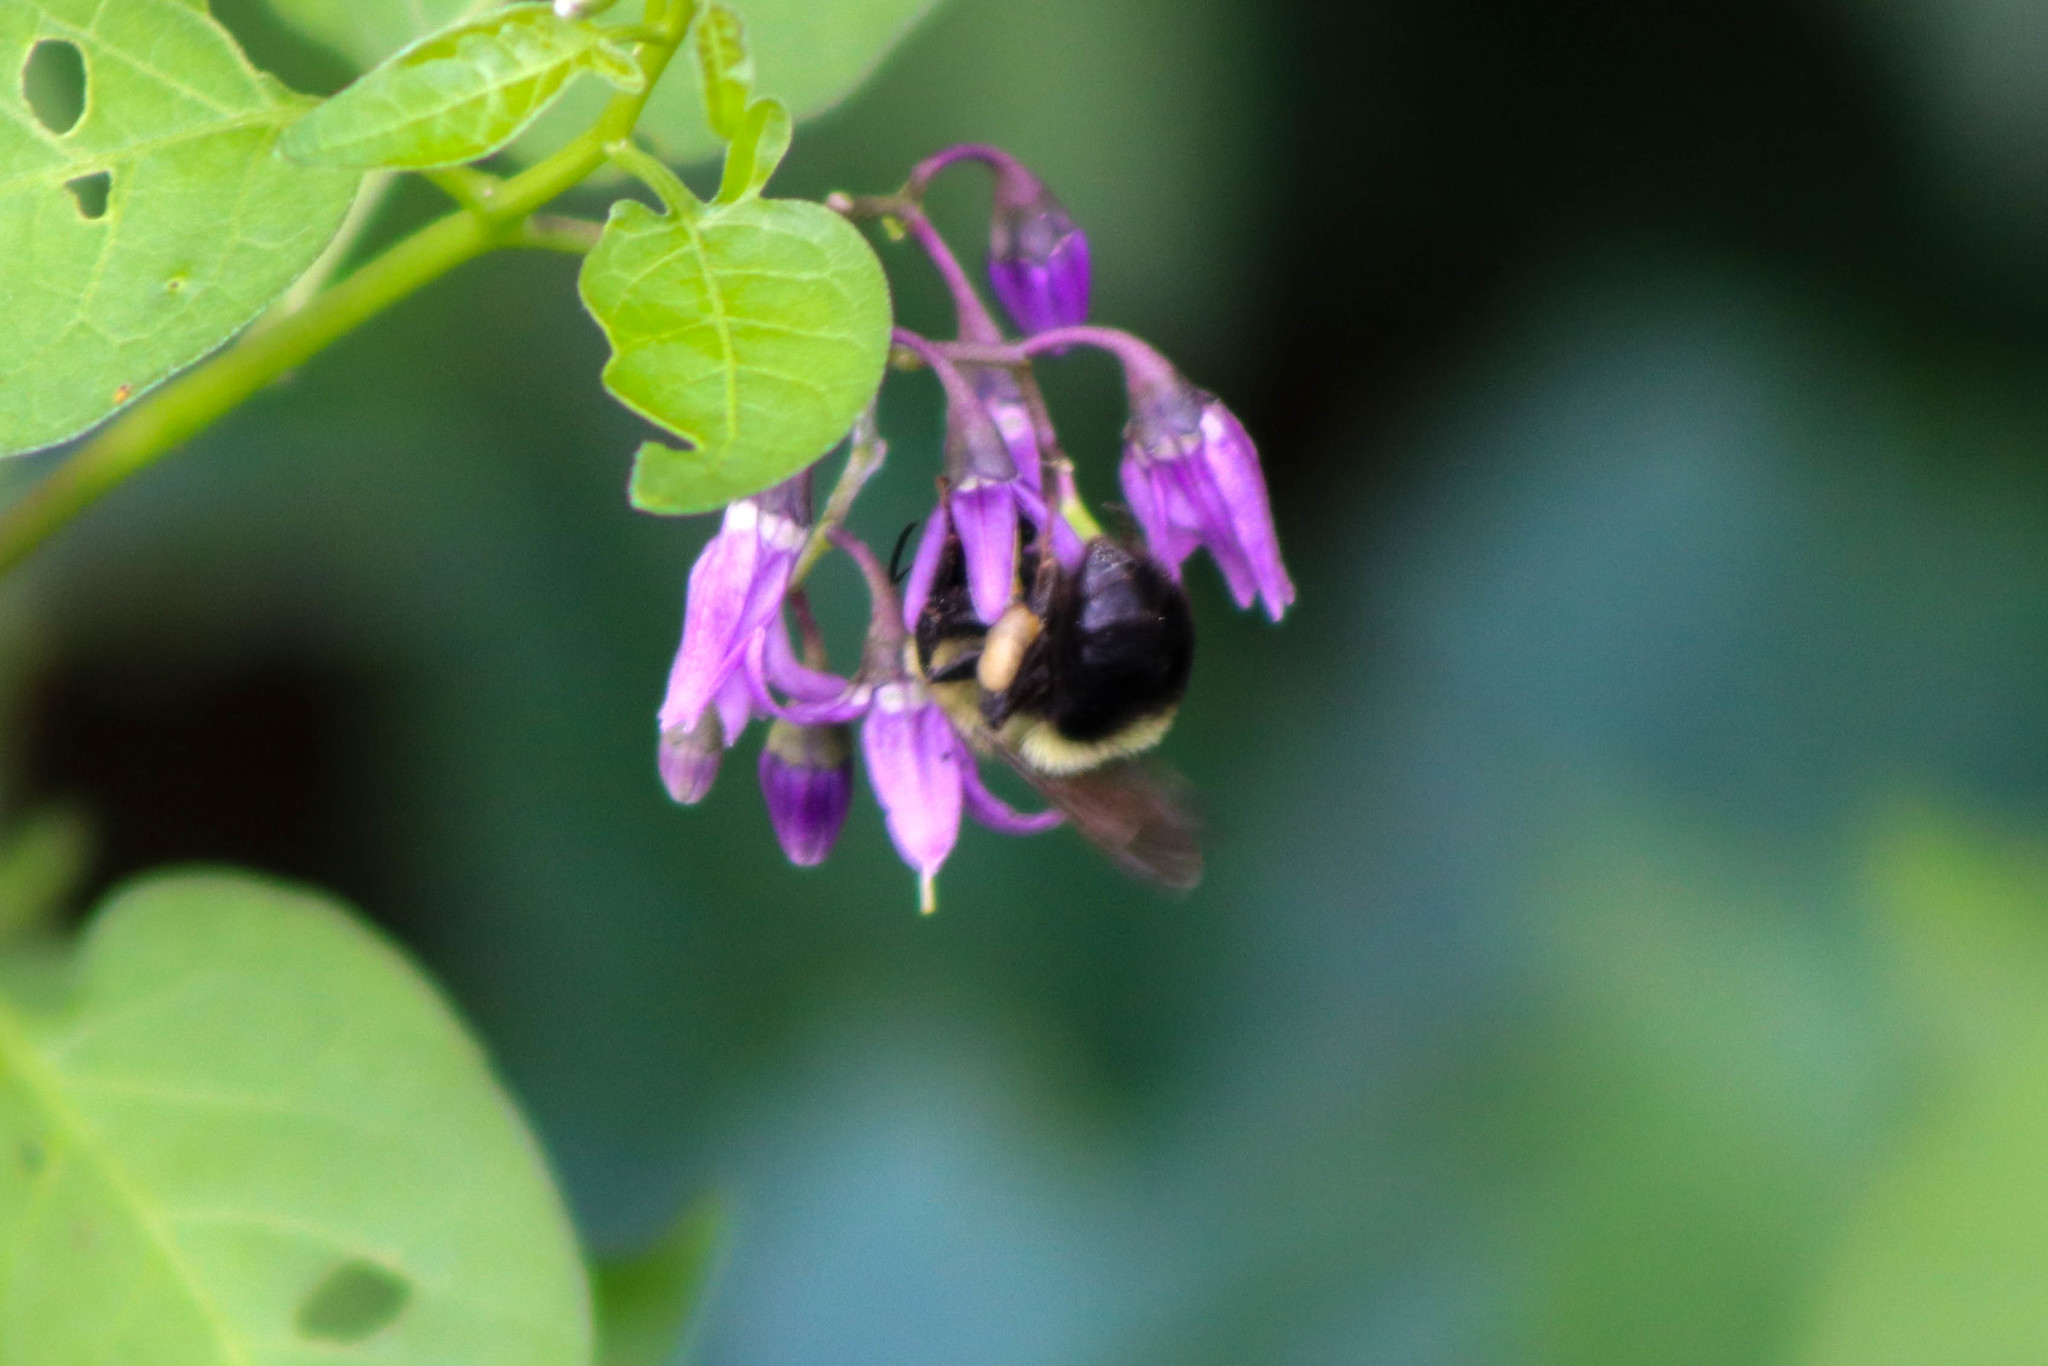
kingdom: Animalia
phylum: Arthropoda
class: Insecta
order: Hymenoptera
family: Apidae
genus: Bombus
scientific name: Bombus bimaculatus
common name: Two-spotted bumble bee
